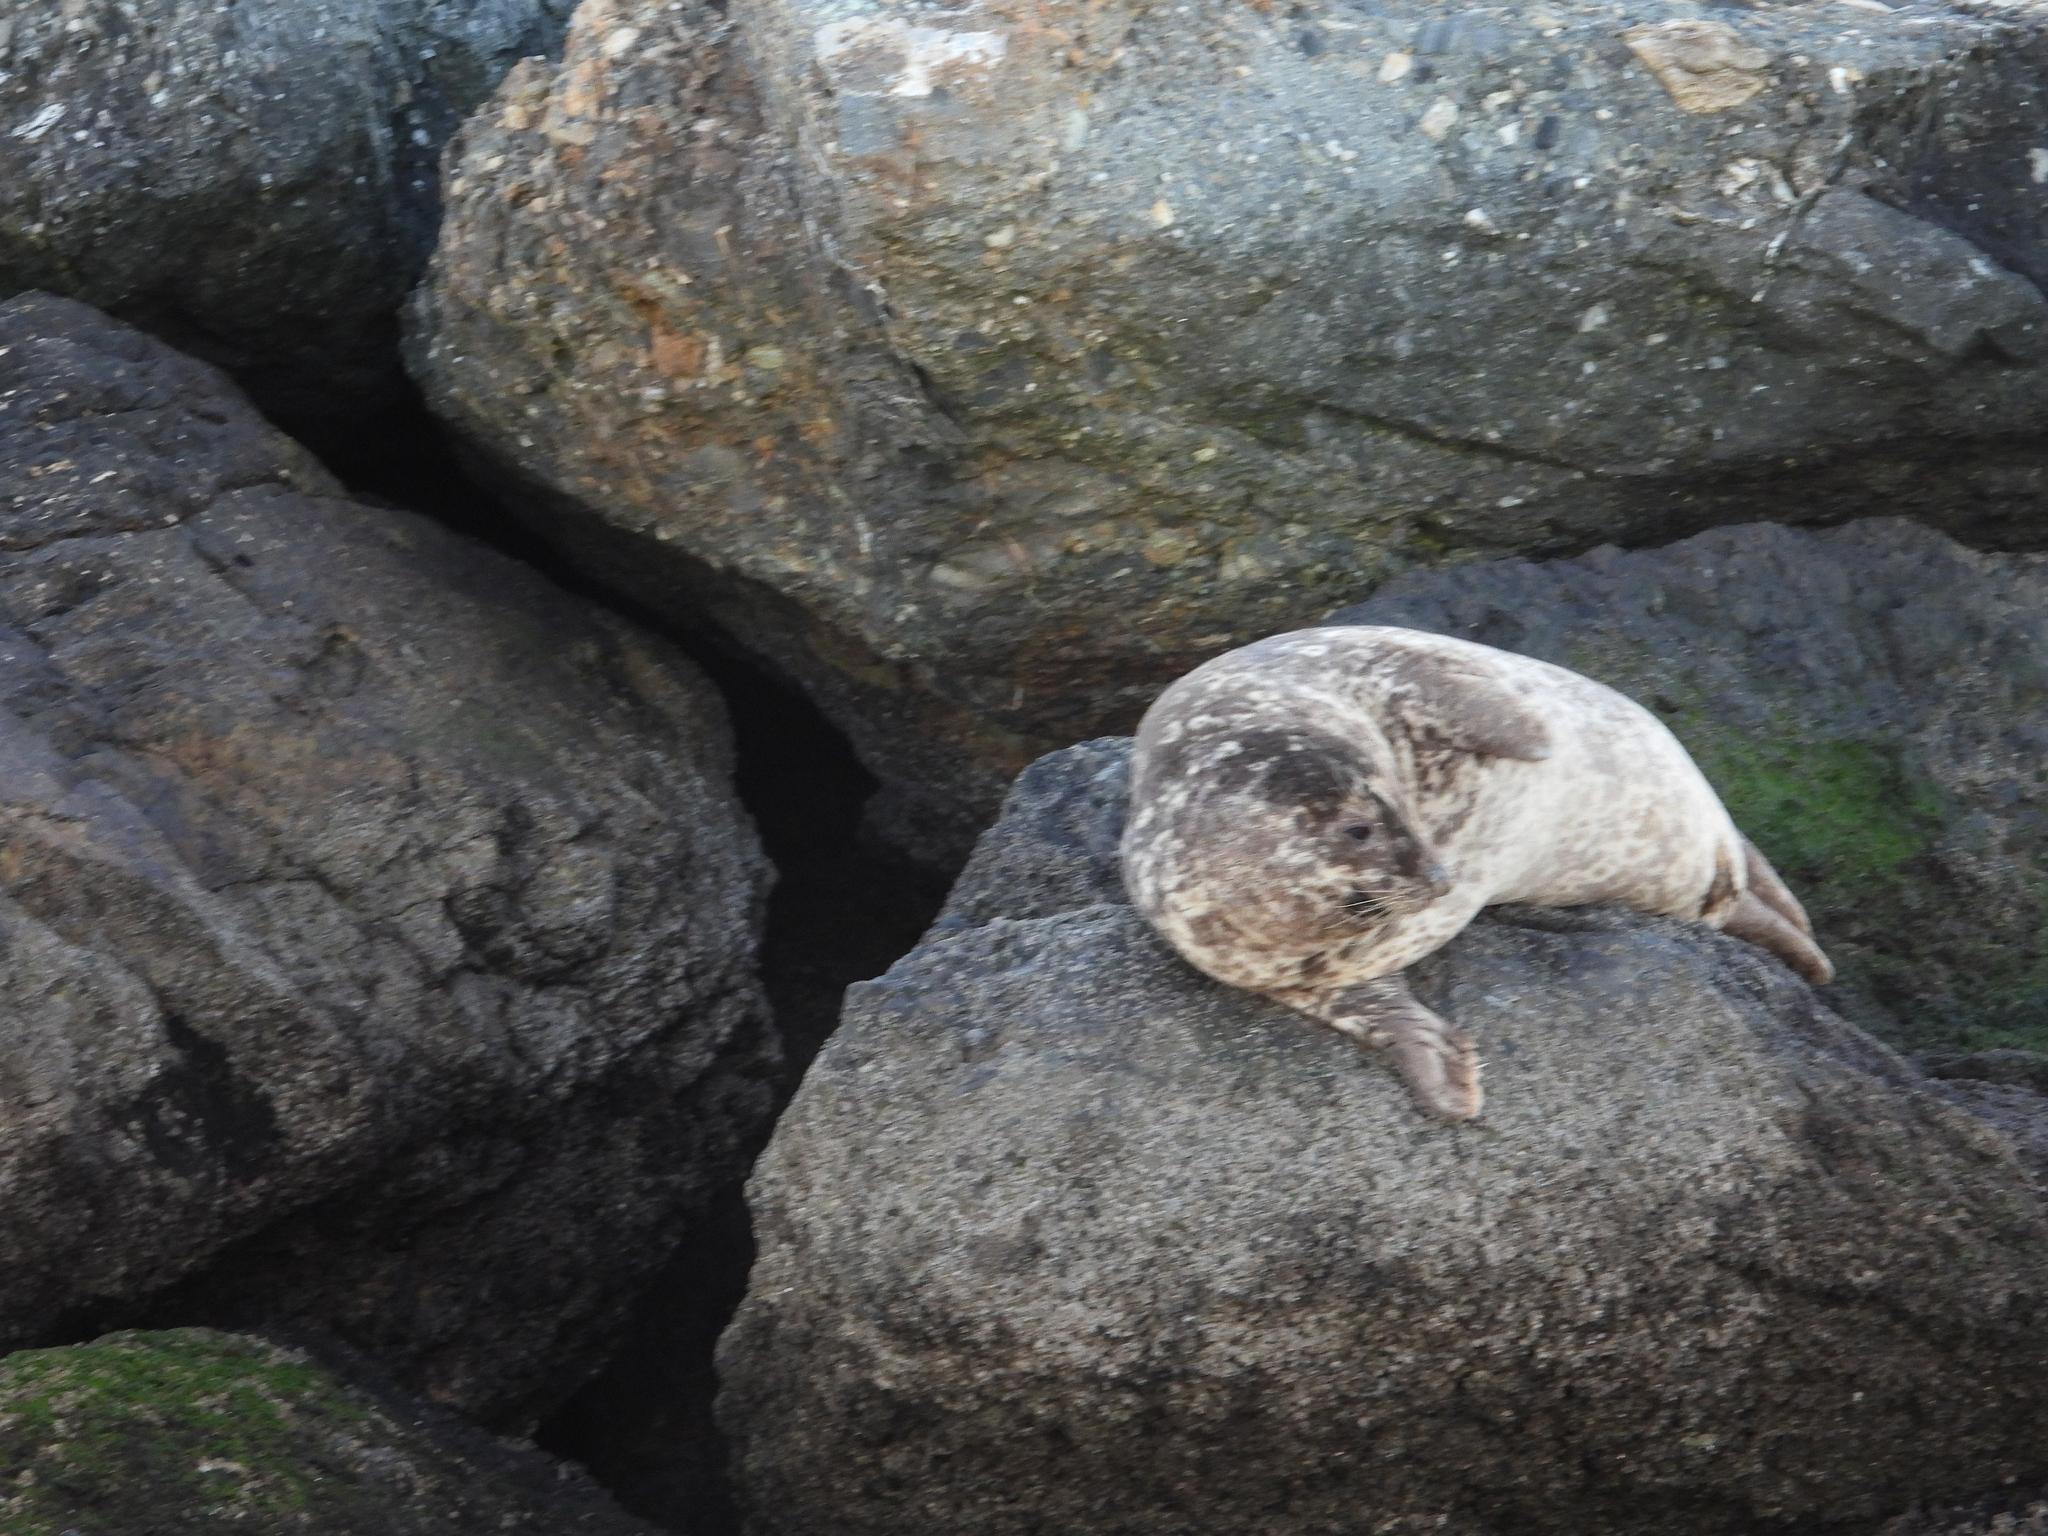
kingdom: Animalia
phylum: Chordata
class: Mammalia
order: Carnivora
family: Phocidae
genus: Phoca
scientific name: Phoca vitulina
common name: Harbor seal
